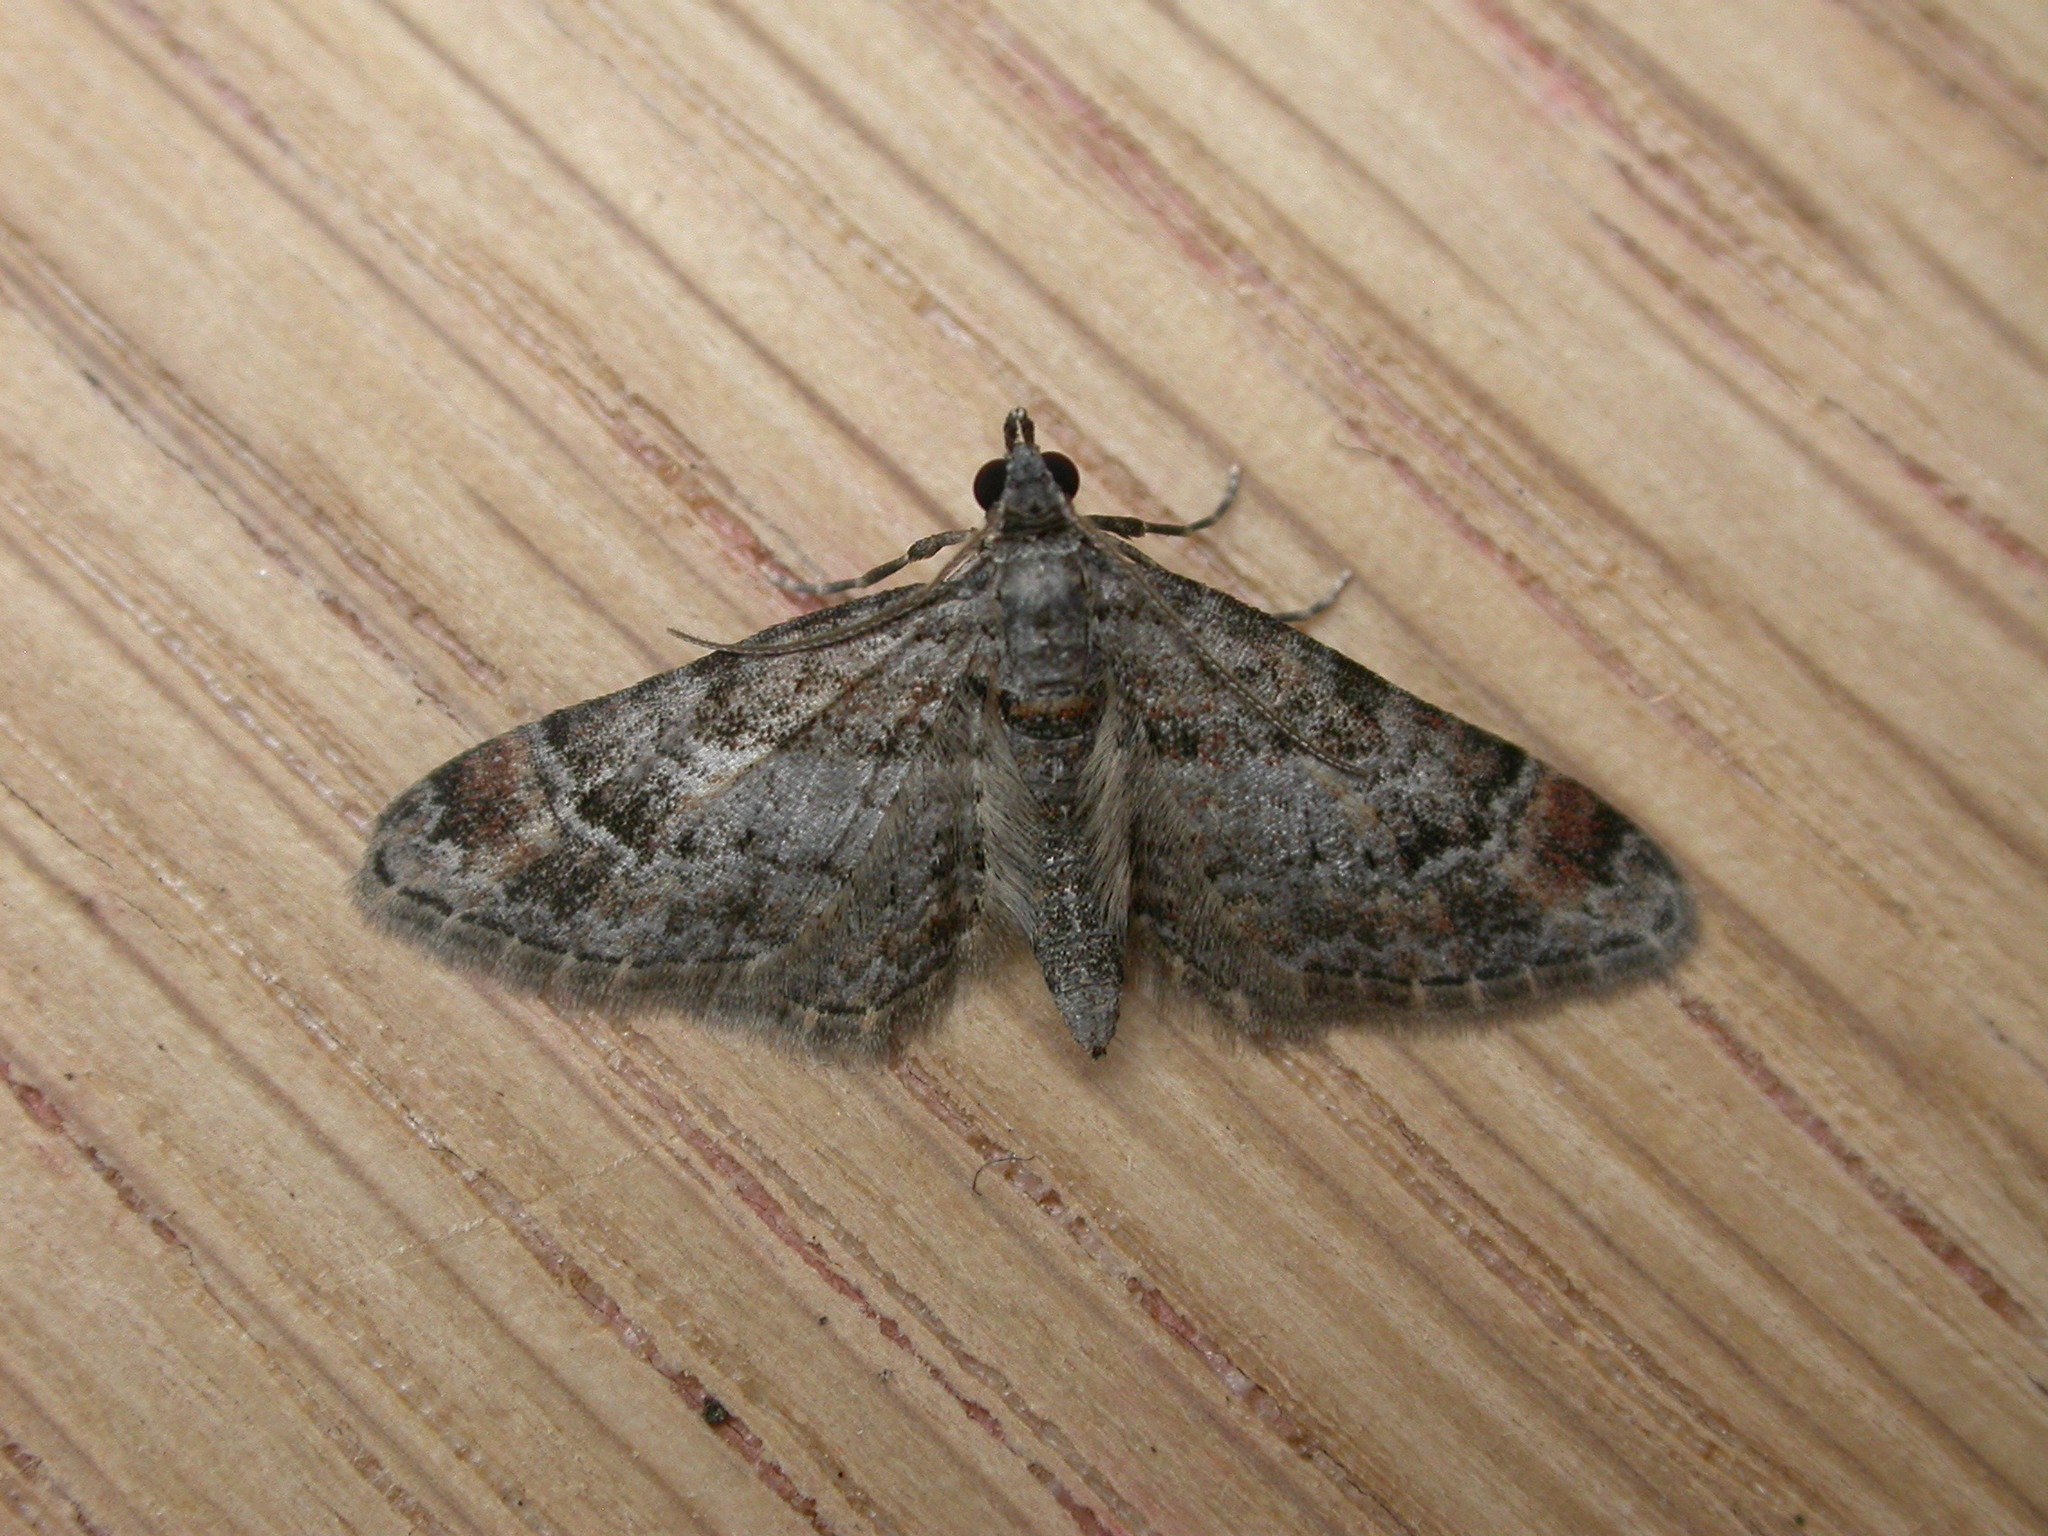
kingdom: Animalia
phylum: Arthropoda
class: Insecta
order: Lepidoptera
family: Geometridae
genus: Gymnoscelis
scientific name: Gymnoscelis rufifasciata
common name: Double-striped pug
